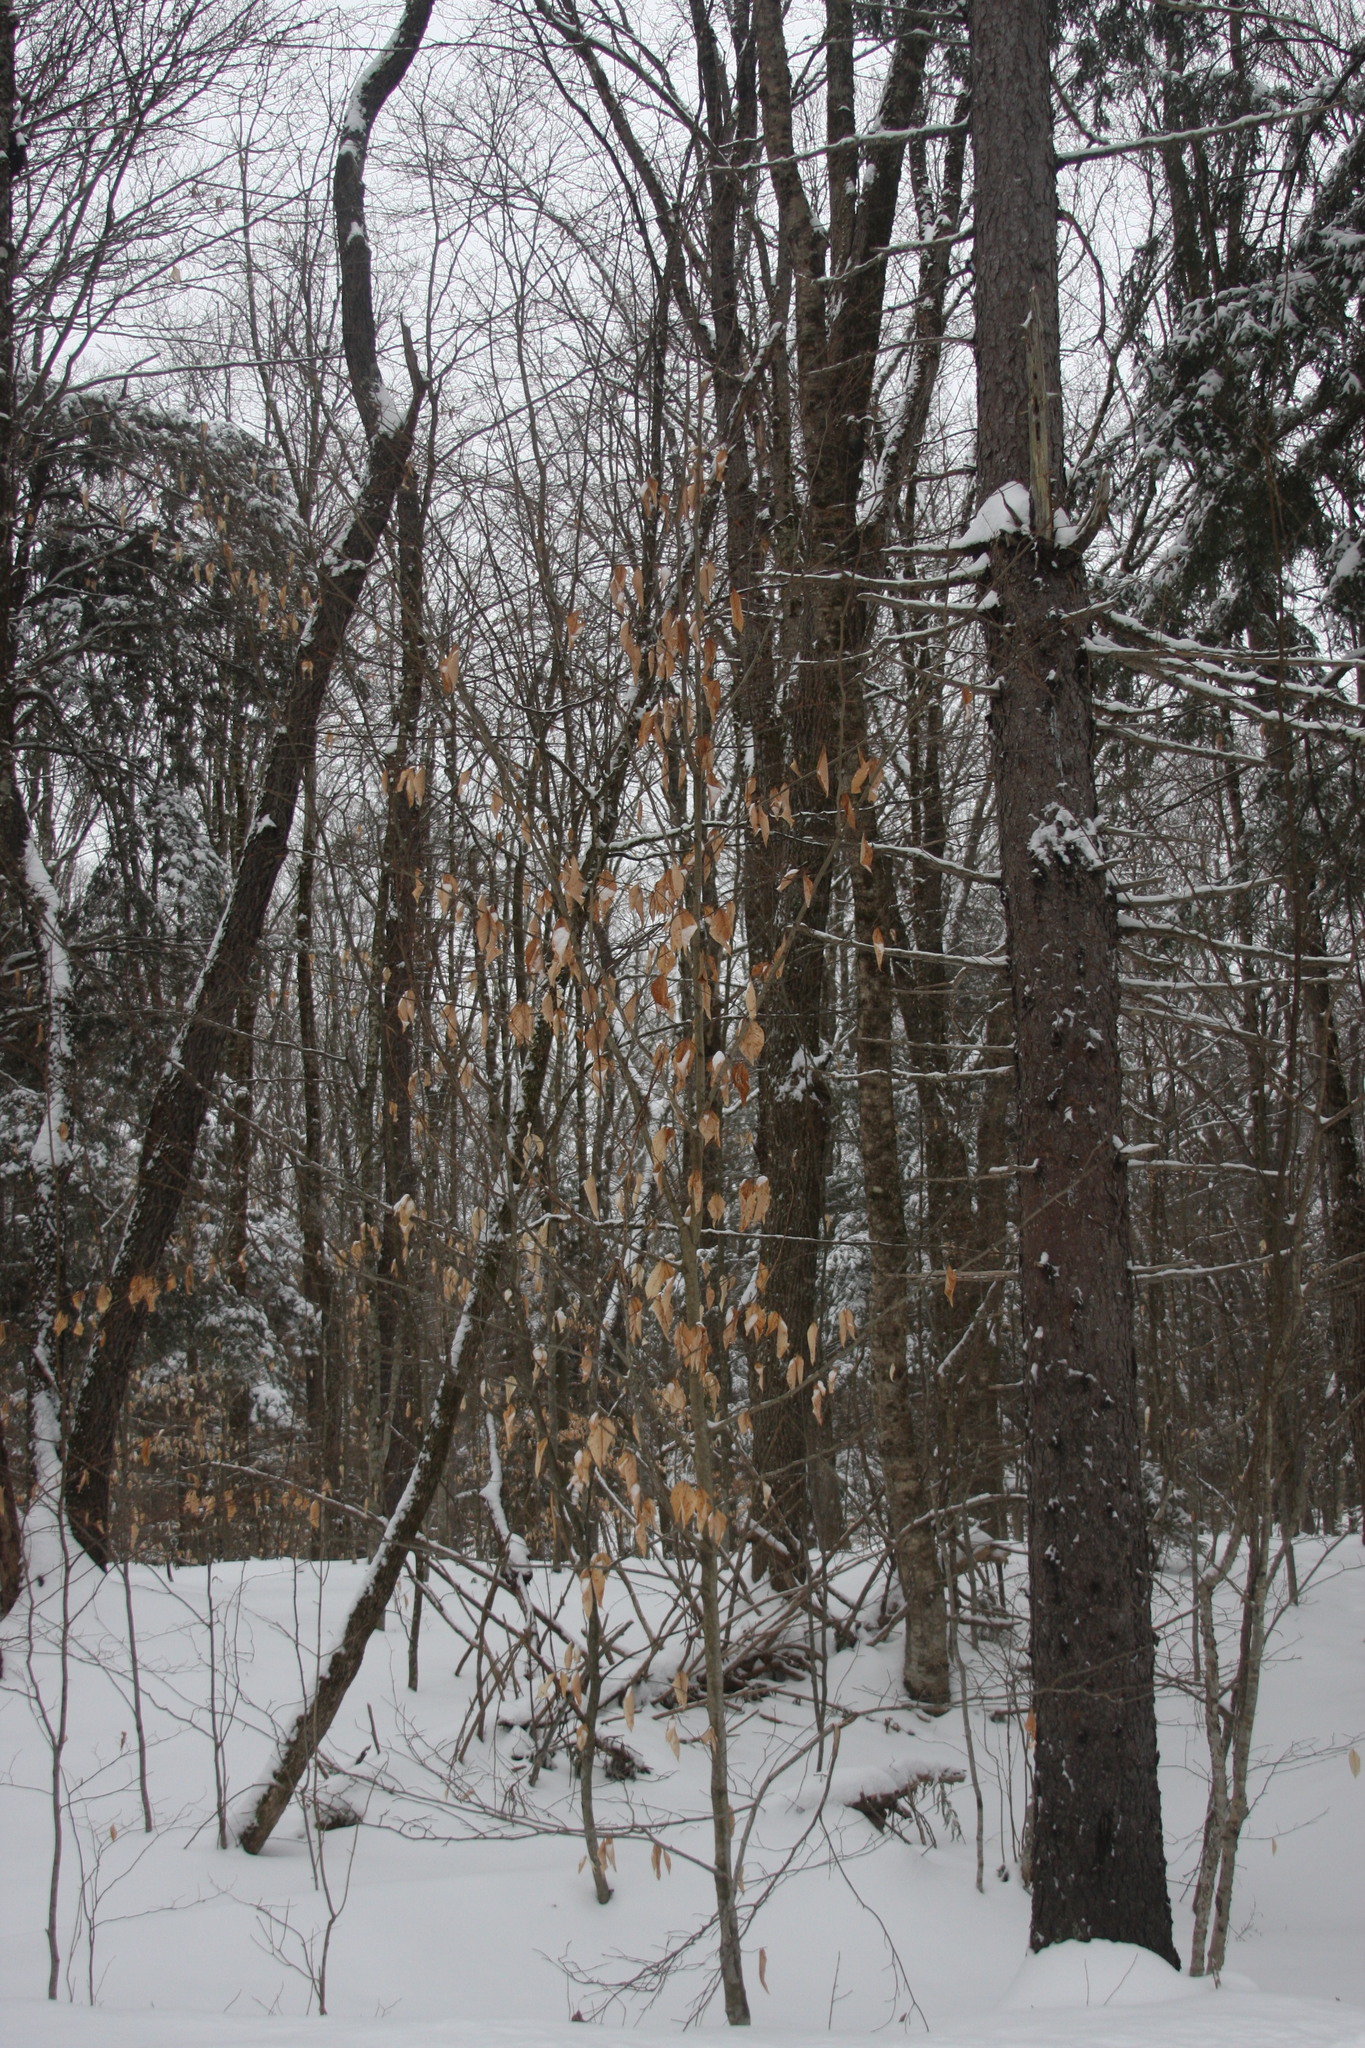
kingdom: Plantae
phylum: Tracheophyta
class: Magnoliopsida
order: Fagales
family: Fagaceae
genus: Fagus
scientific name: Fagus grandifolia
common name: American beech
